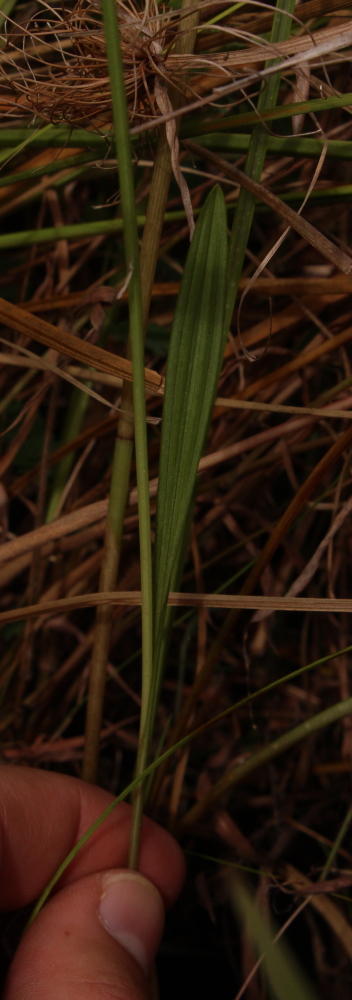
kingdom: Plantae
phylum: Tracheophyta
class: Liliopsida
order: Asparagales
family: Orchidaceae
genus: Eulophia
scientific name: Eulophia odontoglossa
